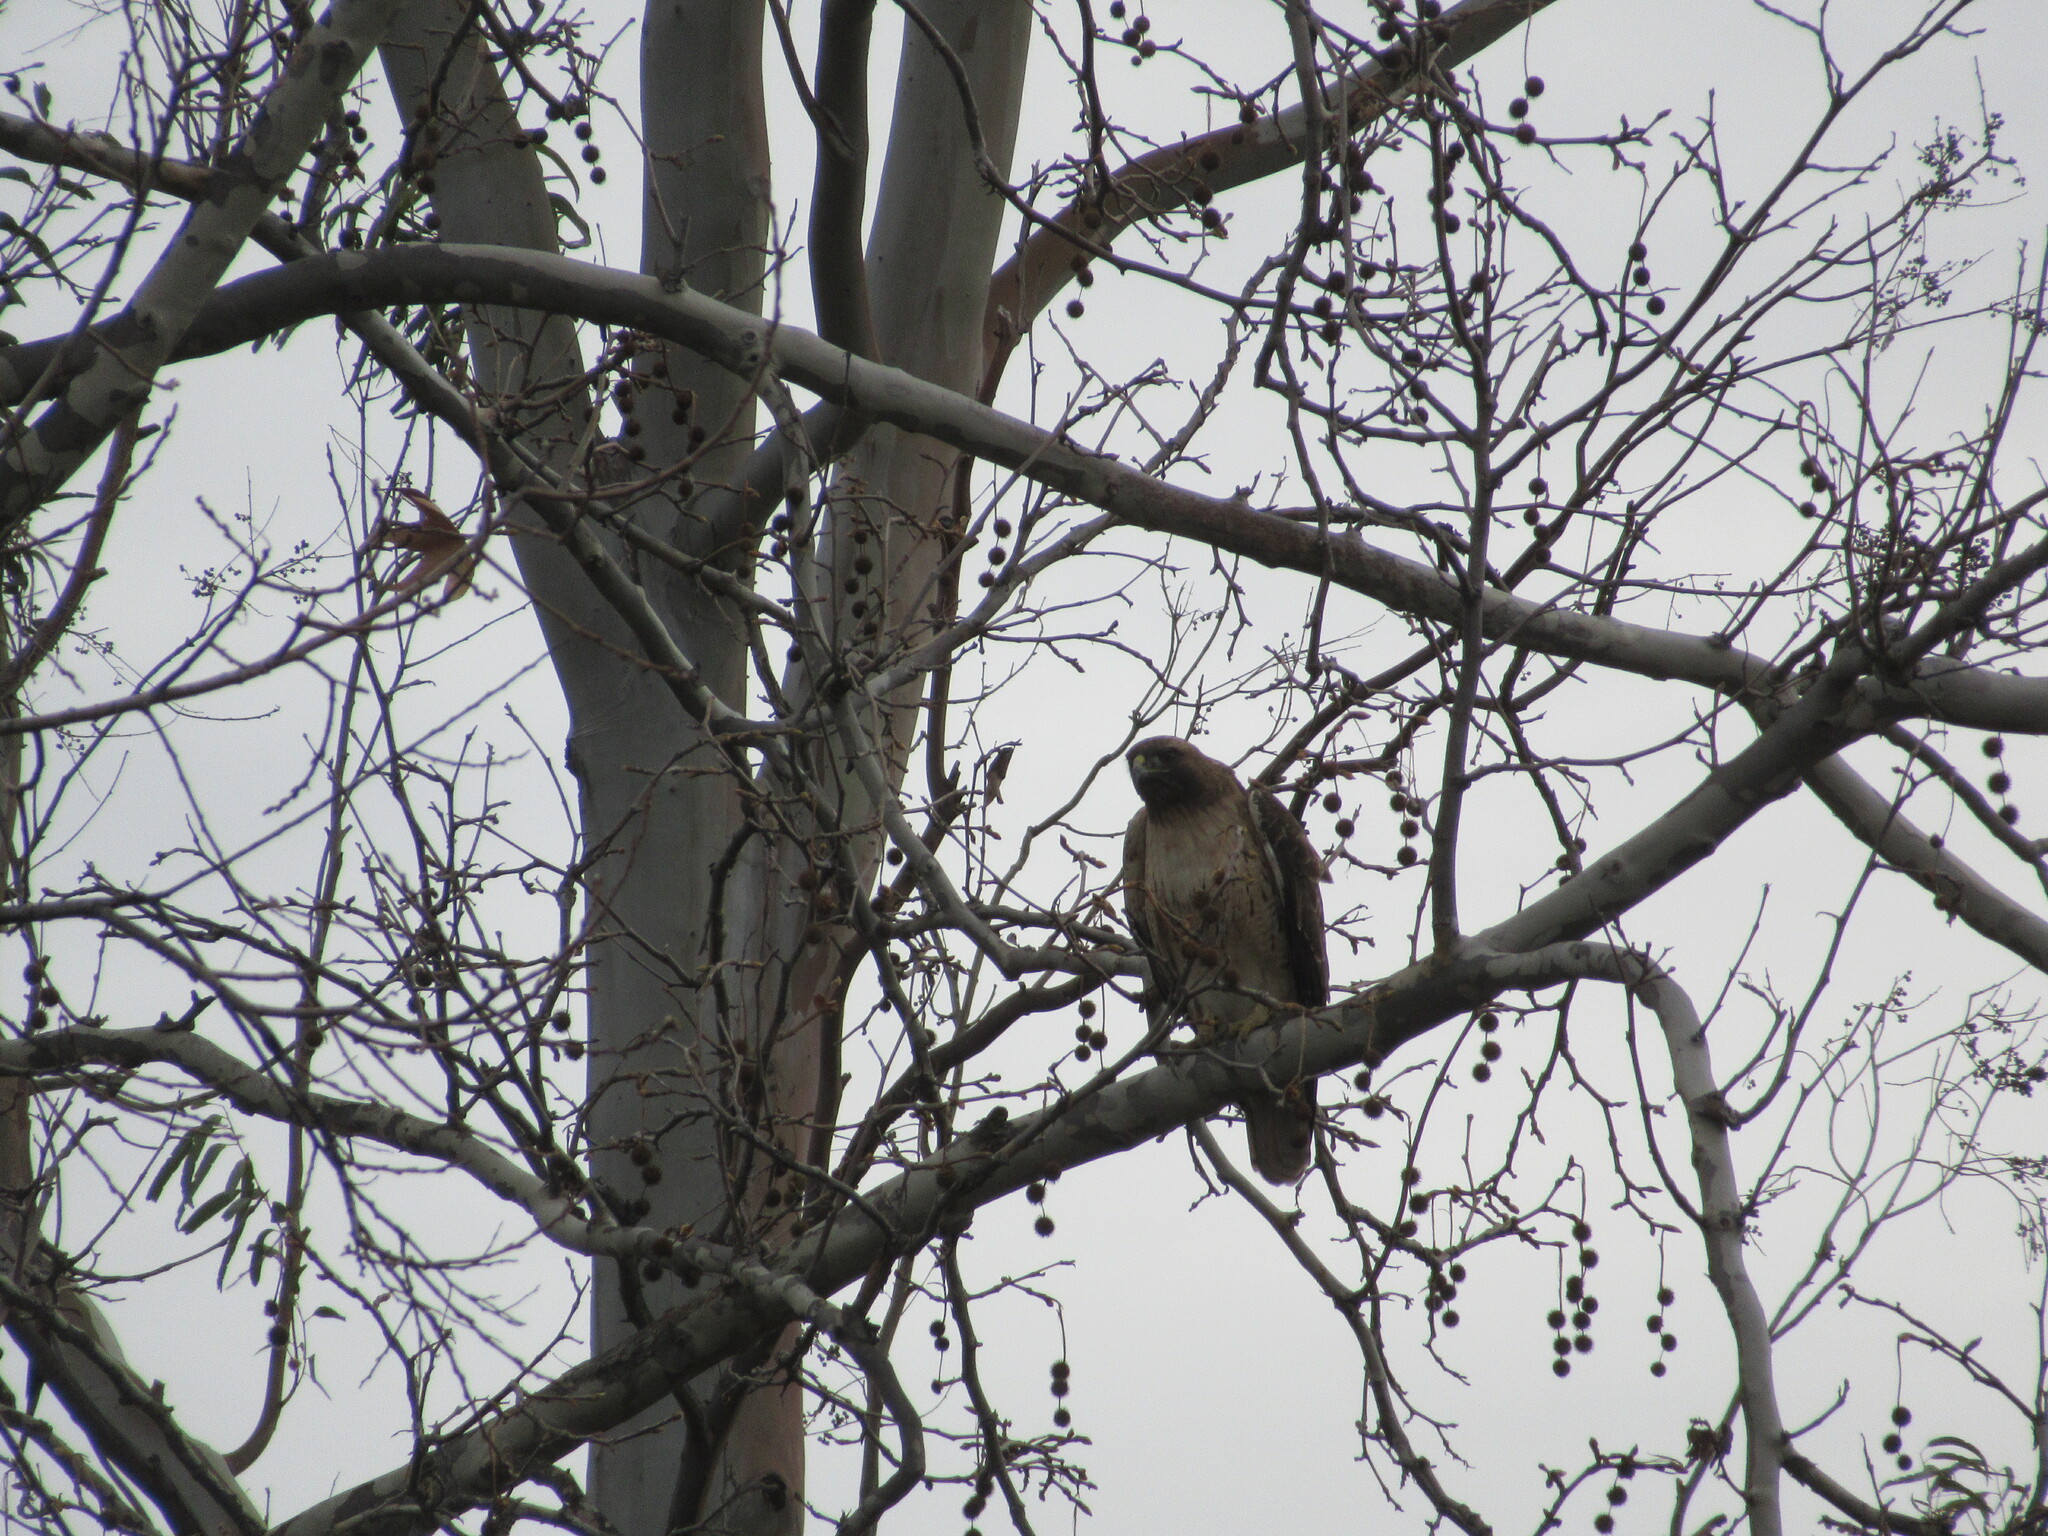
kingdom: Animalia
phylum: Chordata
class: Aves
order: Accipitriformes
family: Accipitridae
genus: Buteo
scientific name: Buteo jamaicensis
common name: Red-tailed hawk
